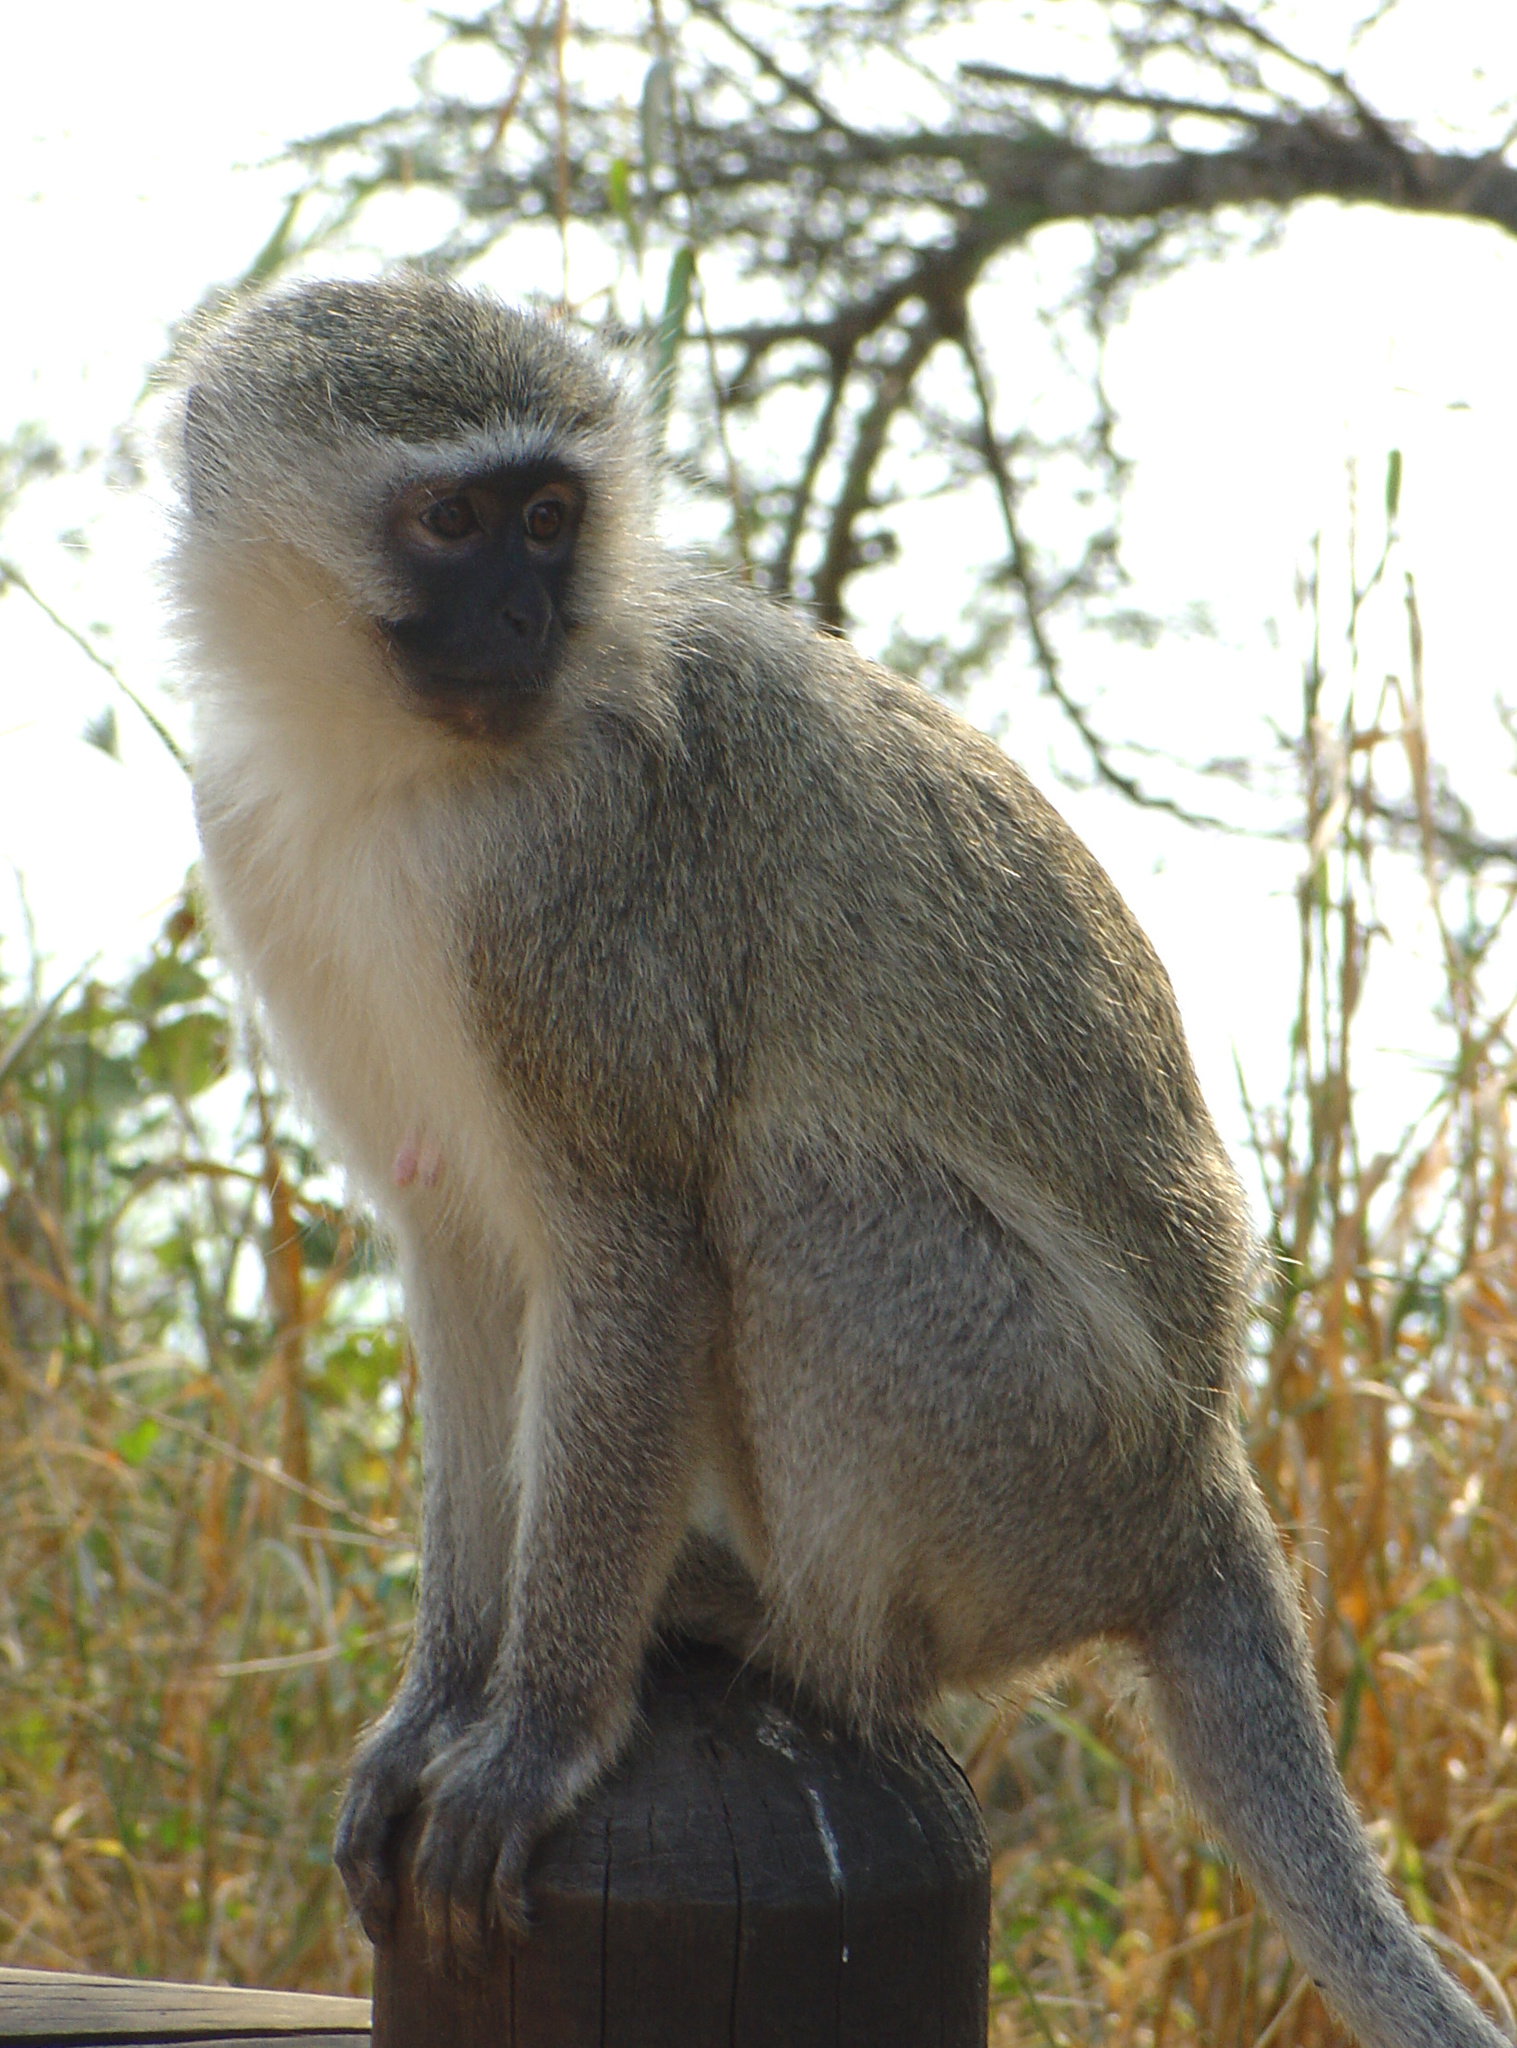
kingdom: Animalia
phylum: Chordata
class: Mammalia
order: Primates
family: Cercopithecidae
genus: Chlorocebus
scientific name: Chlorocebus pygerythrus
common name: Vervet monkey
